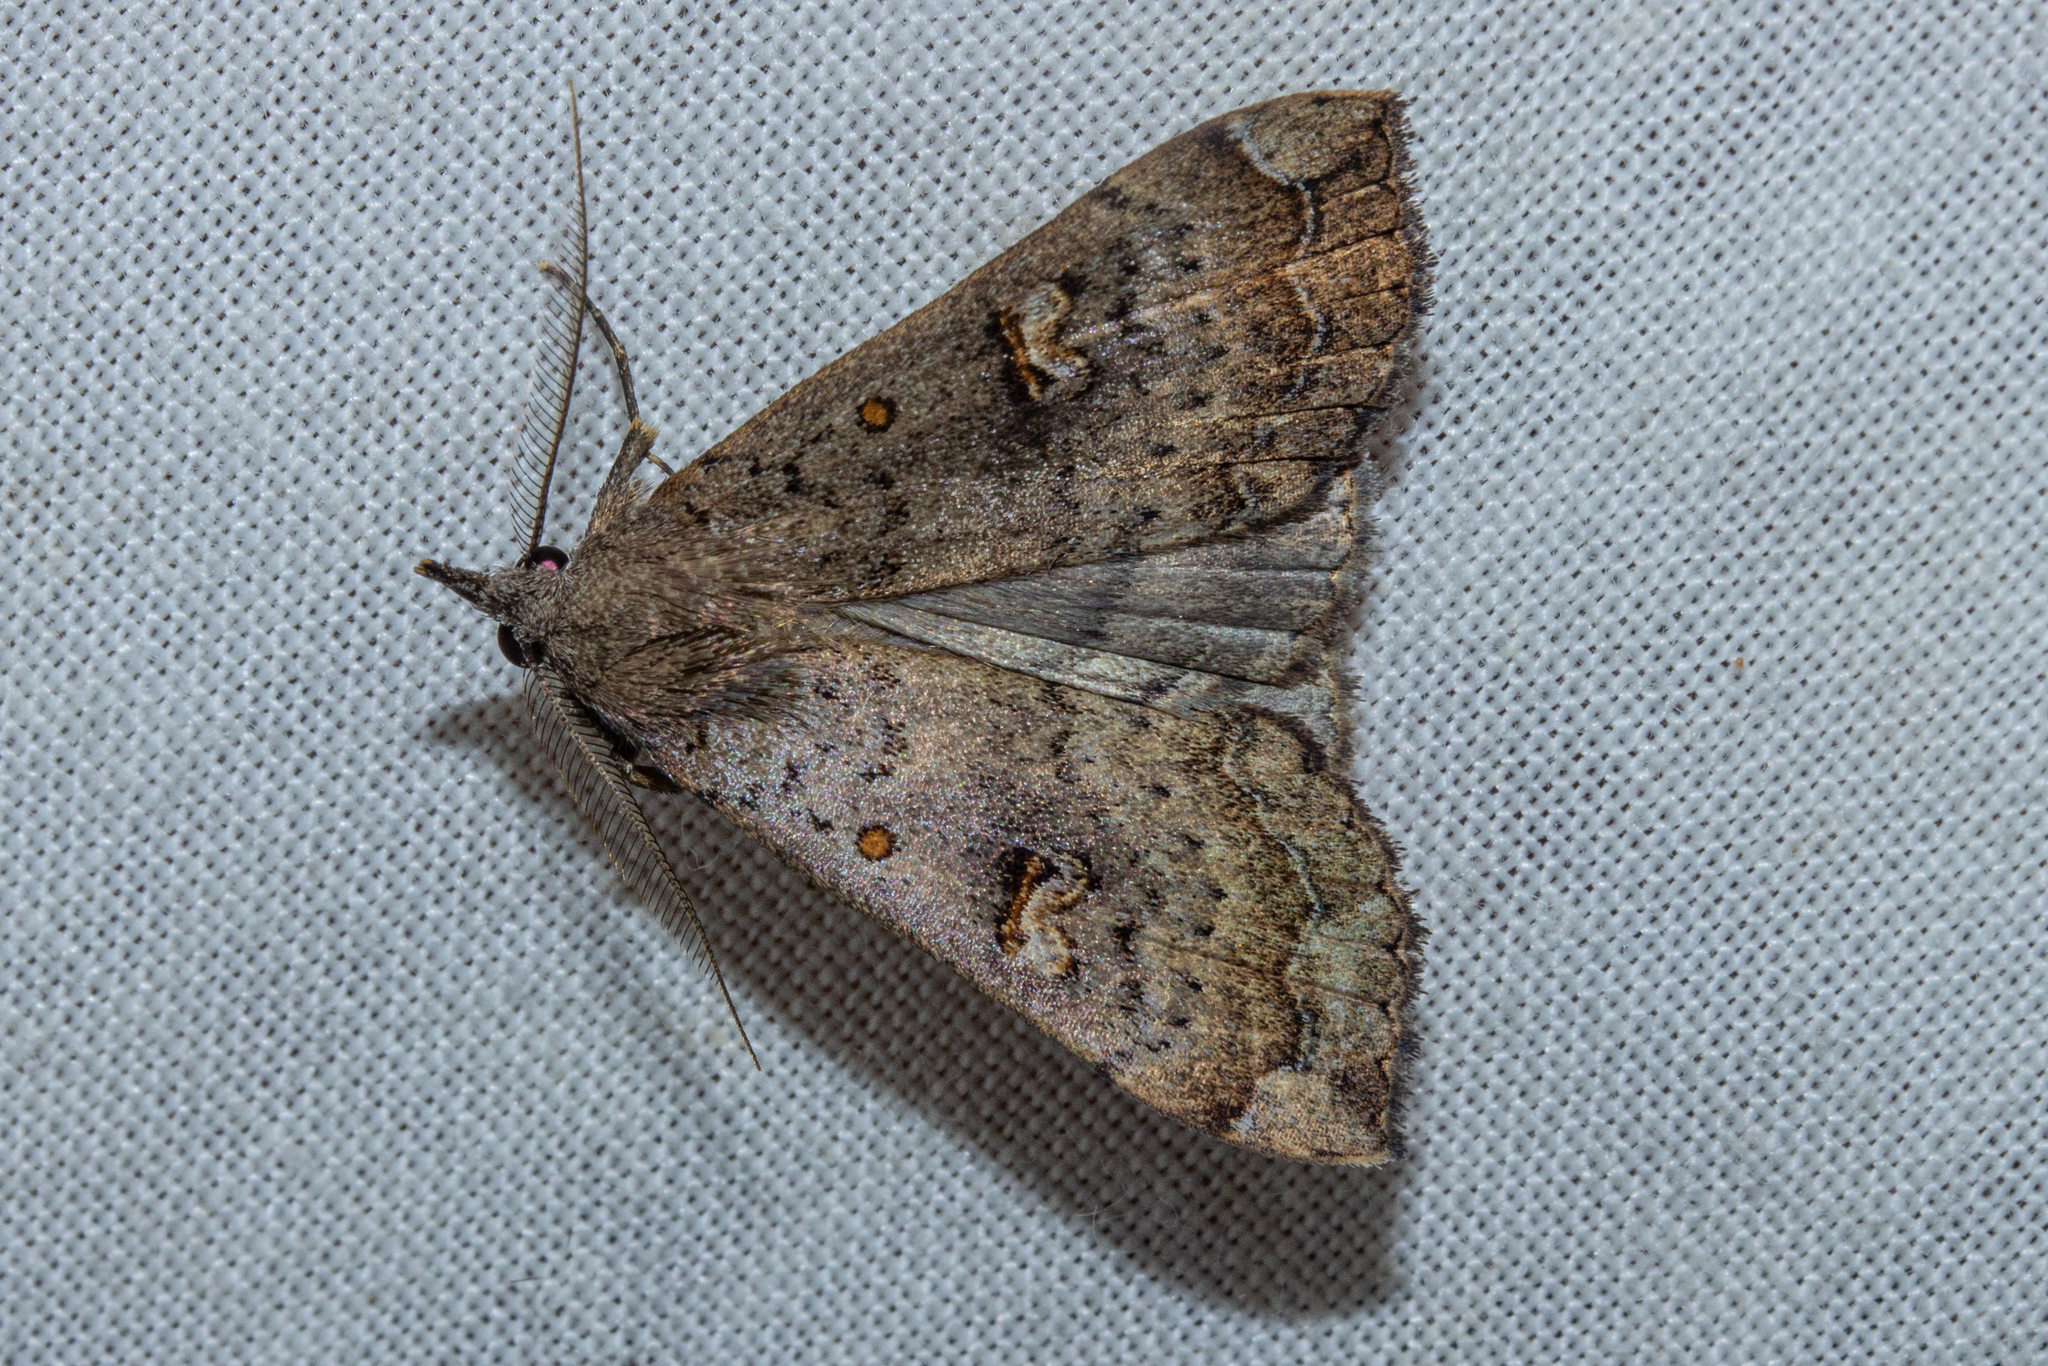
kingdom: Animalia
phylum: Arthropoda
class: Insecta
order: Lepidoptera
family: Erebidae
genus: Rhapsa
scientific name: Rhapsa scotosialis
